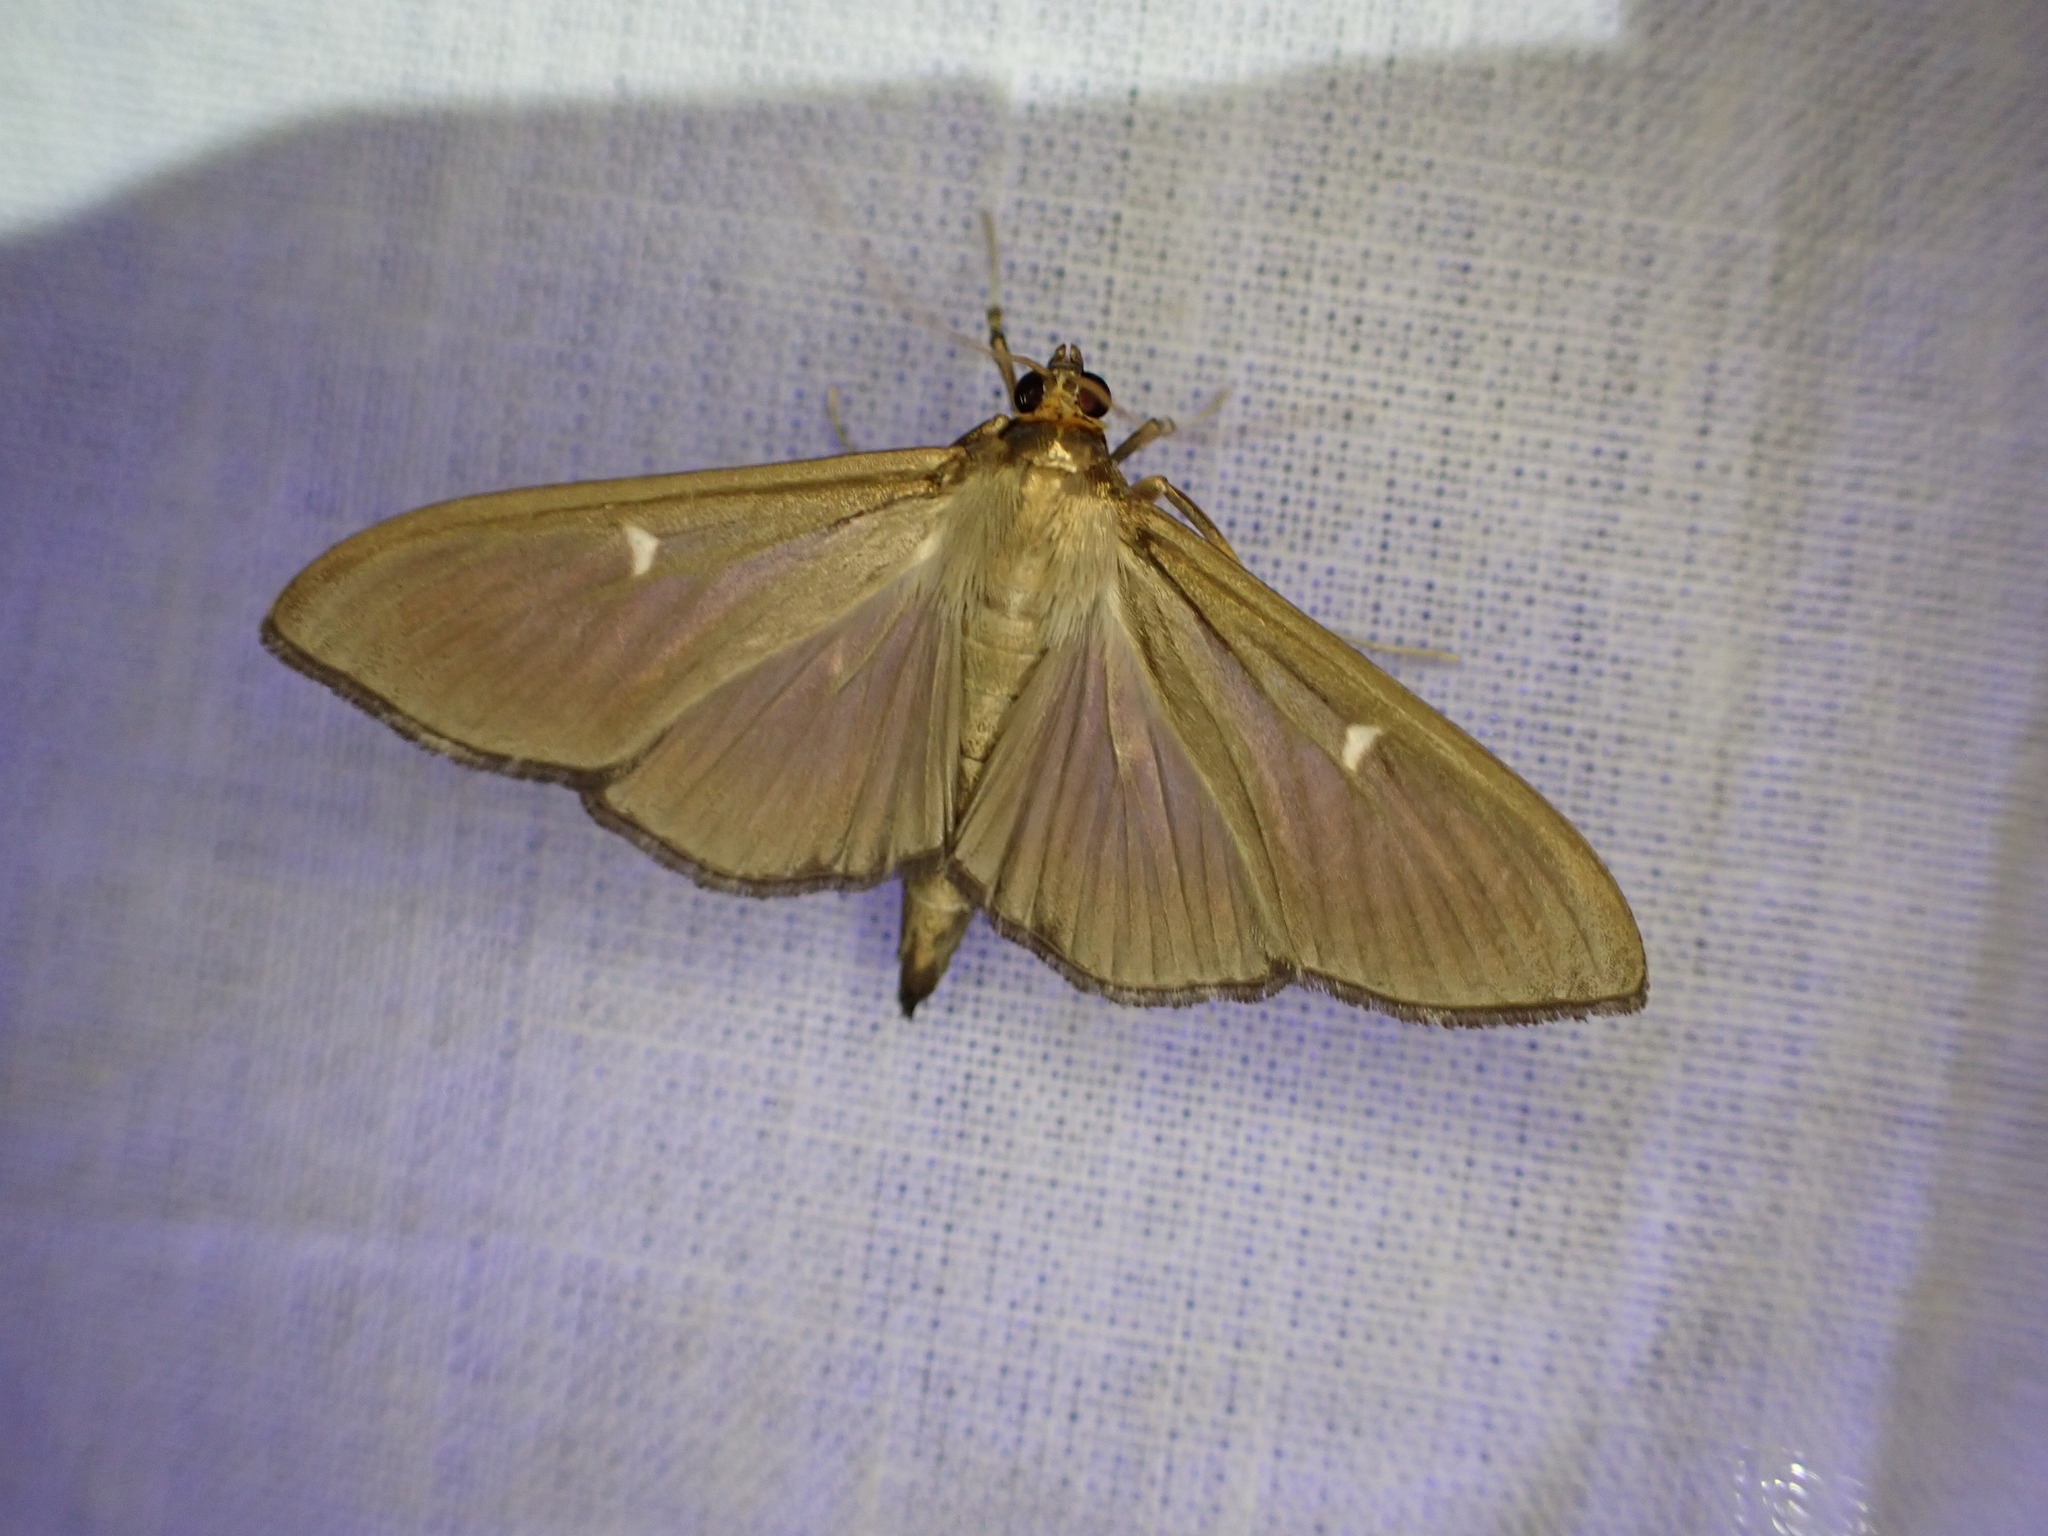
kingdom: Animalia
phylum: Arthropoda
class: Insecta
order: Lepidoptera
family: Crambidae
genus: Cydalima
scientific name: Cydalima perspectalis
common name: Box tree moth
